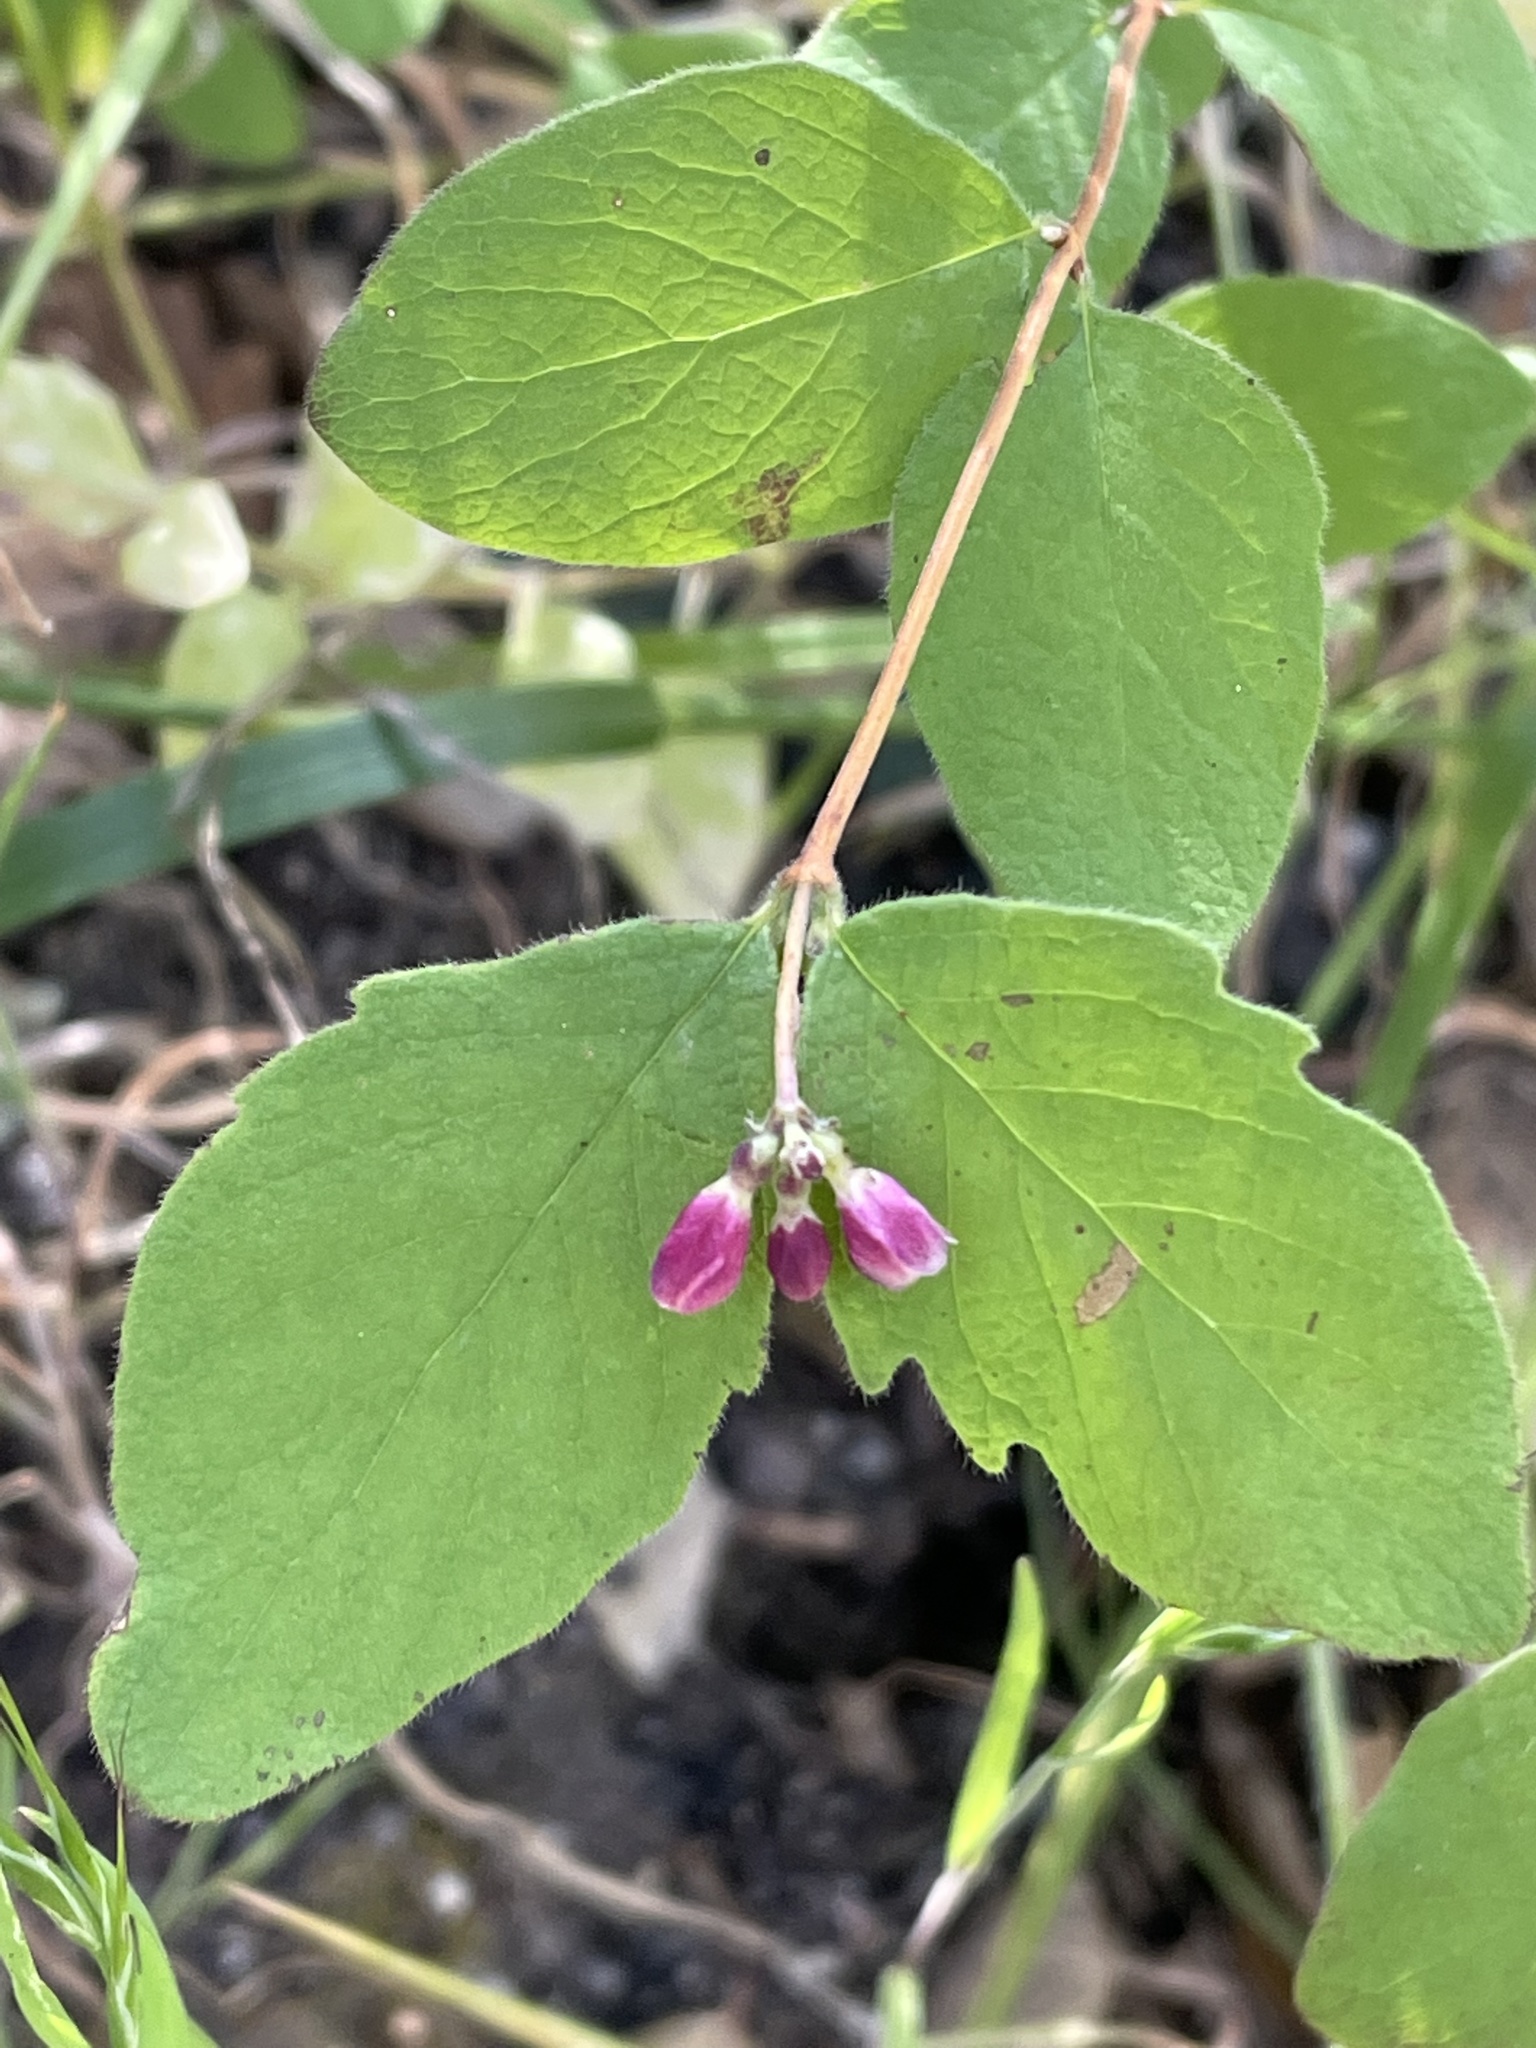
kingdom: Plantae
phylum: Tracheophyta
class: Magnoliopsida
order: Dipsacales
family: Caprifoliaceae
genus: Symphoricarpos
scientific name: Symphoricarpos mollis
